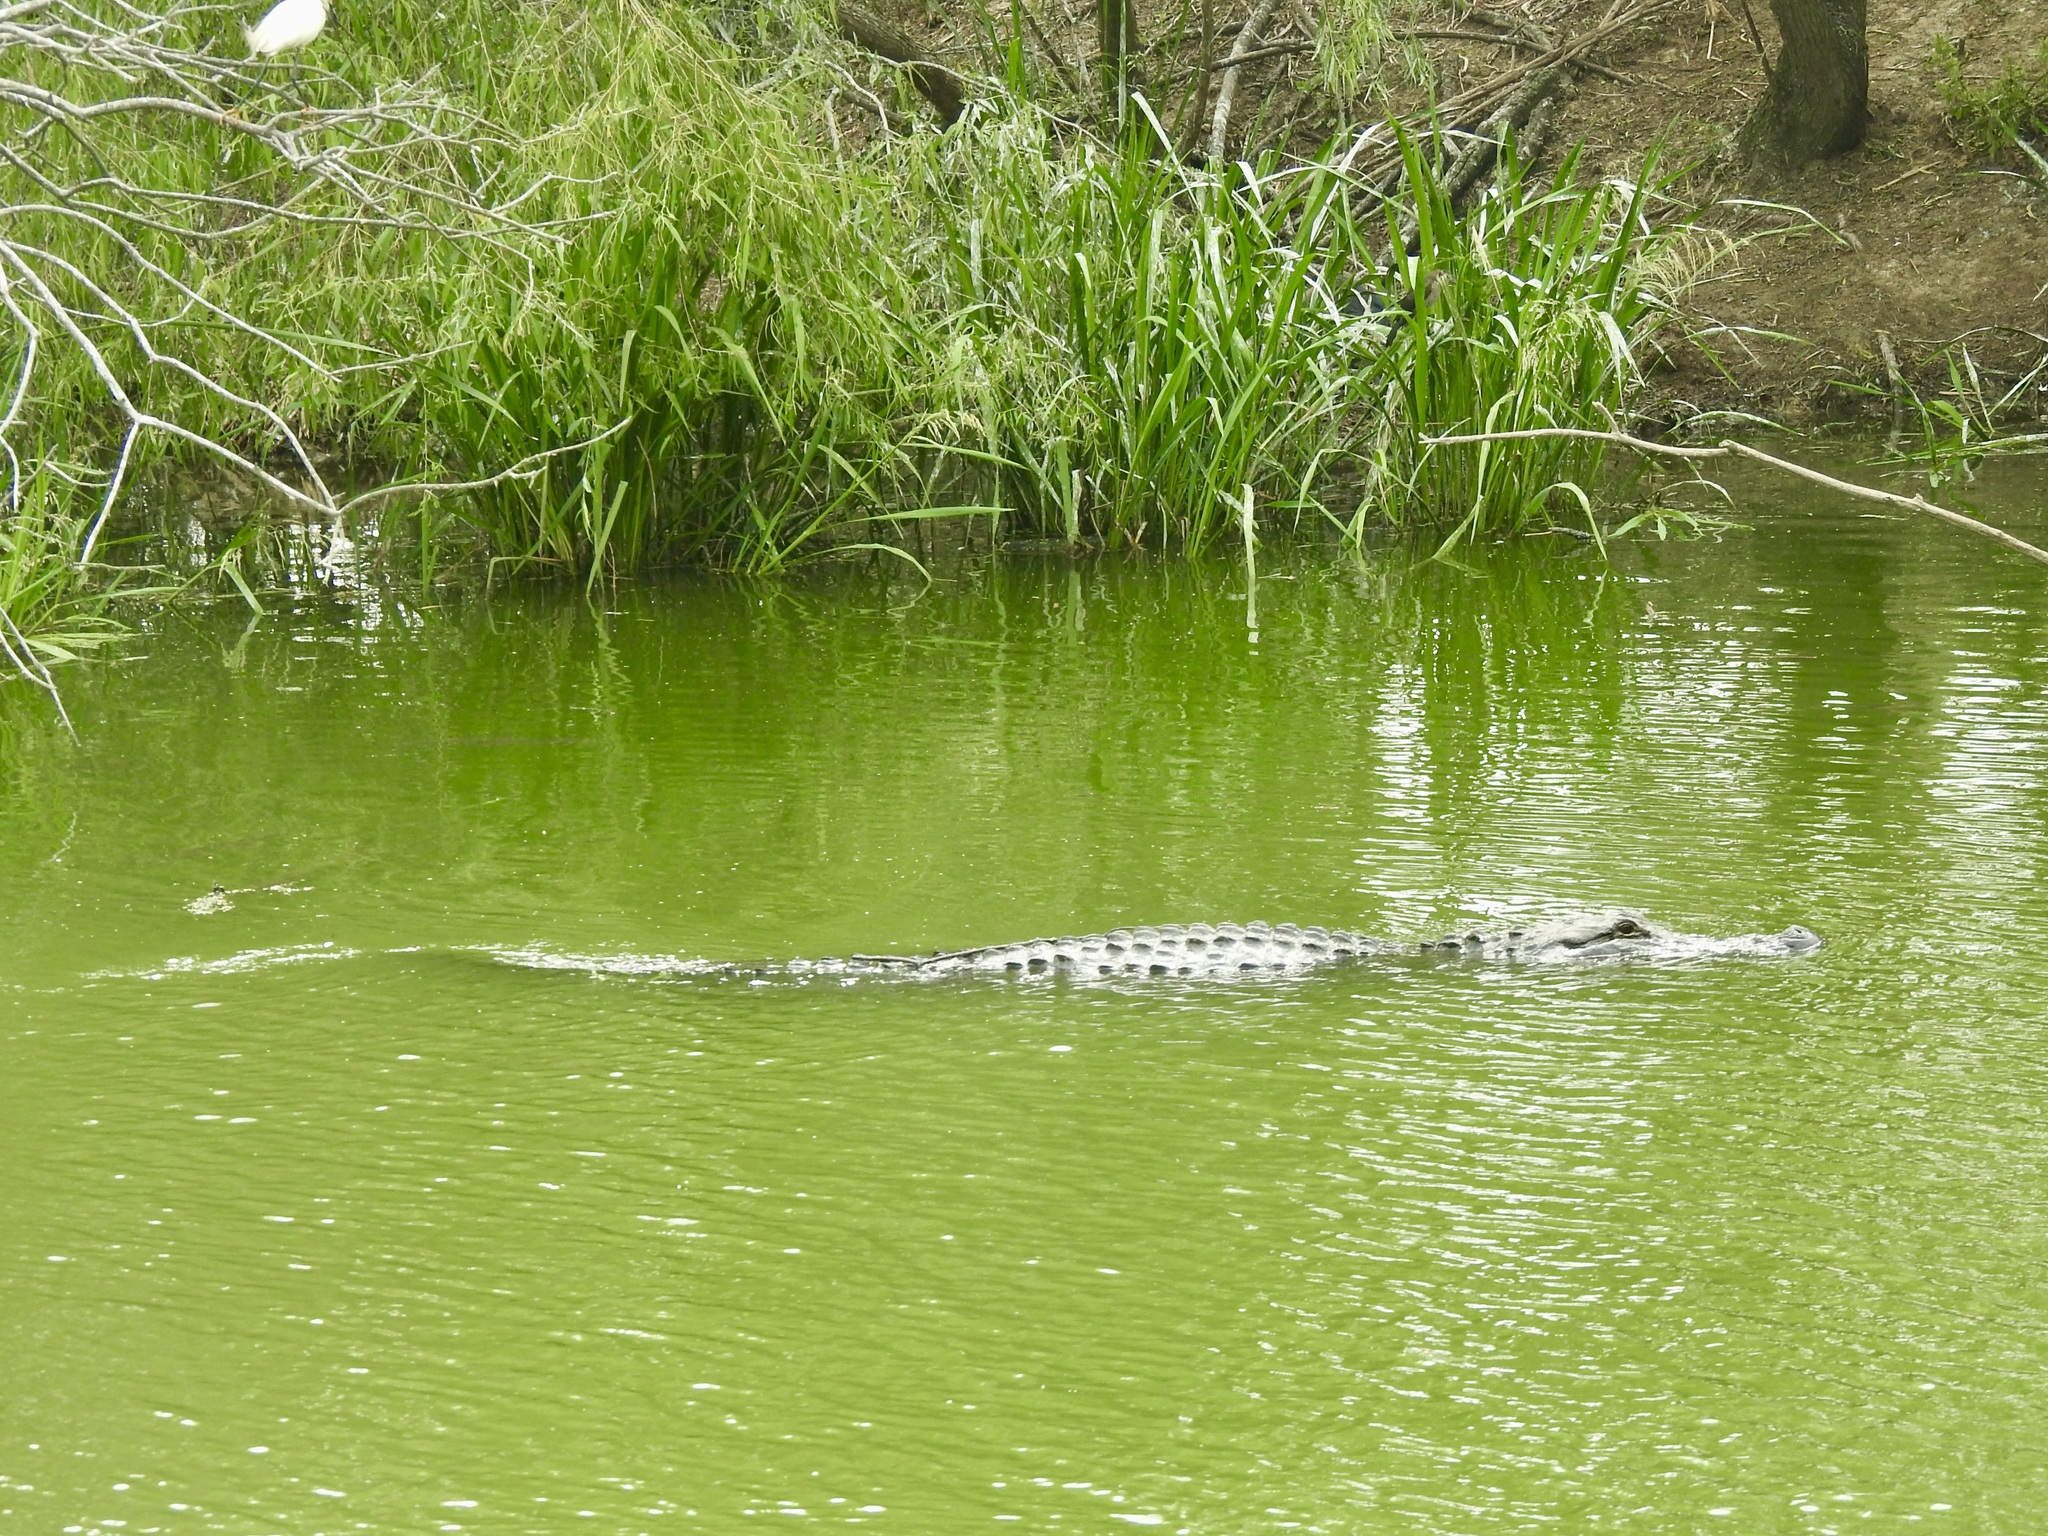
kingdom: Animalia
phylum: Chordata
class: Crocodylia
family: Alligatoridae
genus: Alligator
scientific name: Alligator mississippiensis
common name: American alligator
